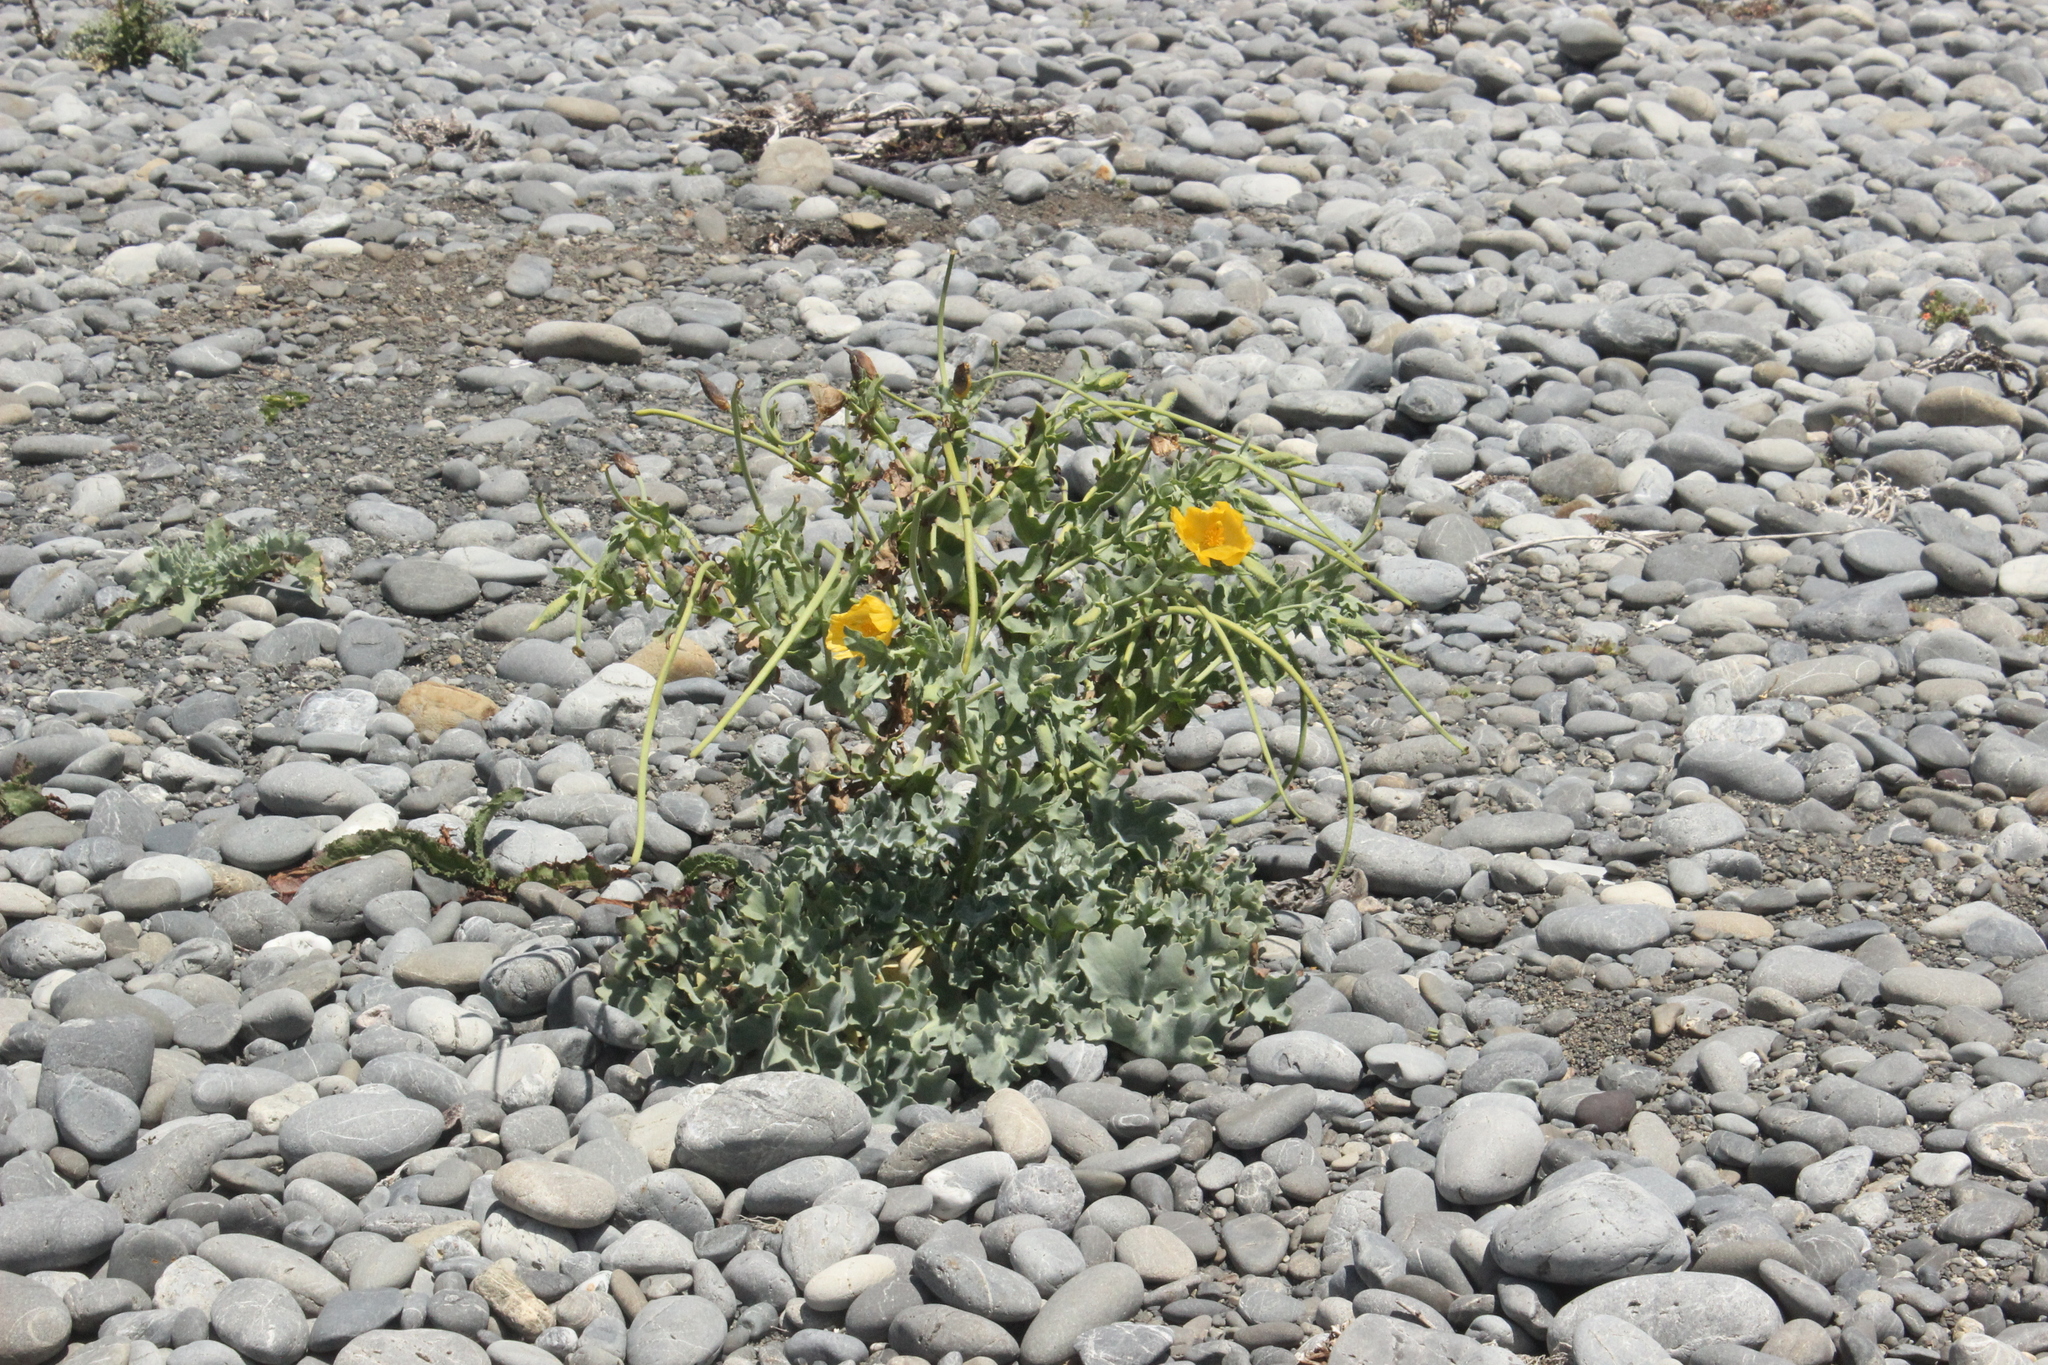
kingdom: Plantae
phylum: Tracheophyta
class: Magnoliopsida
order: Ranunculales
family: Papaveraceae
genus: Glaucium
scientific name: Glaucium flavum
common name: Yellow horned-poppy
